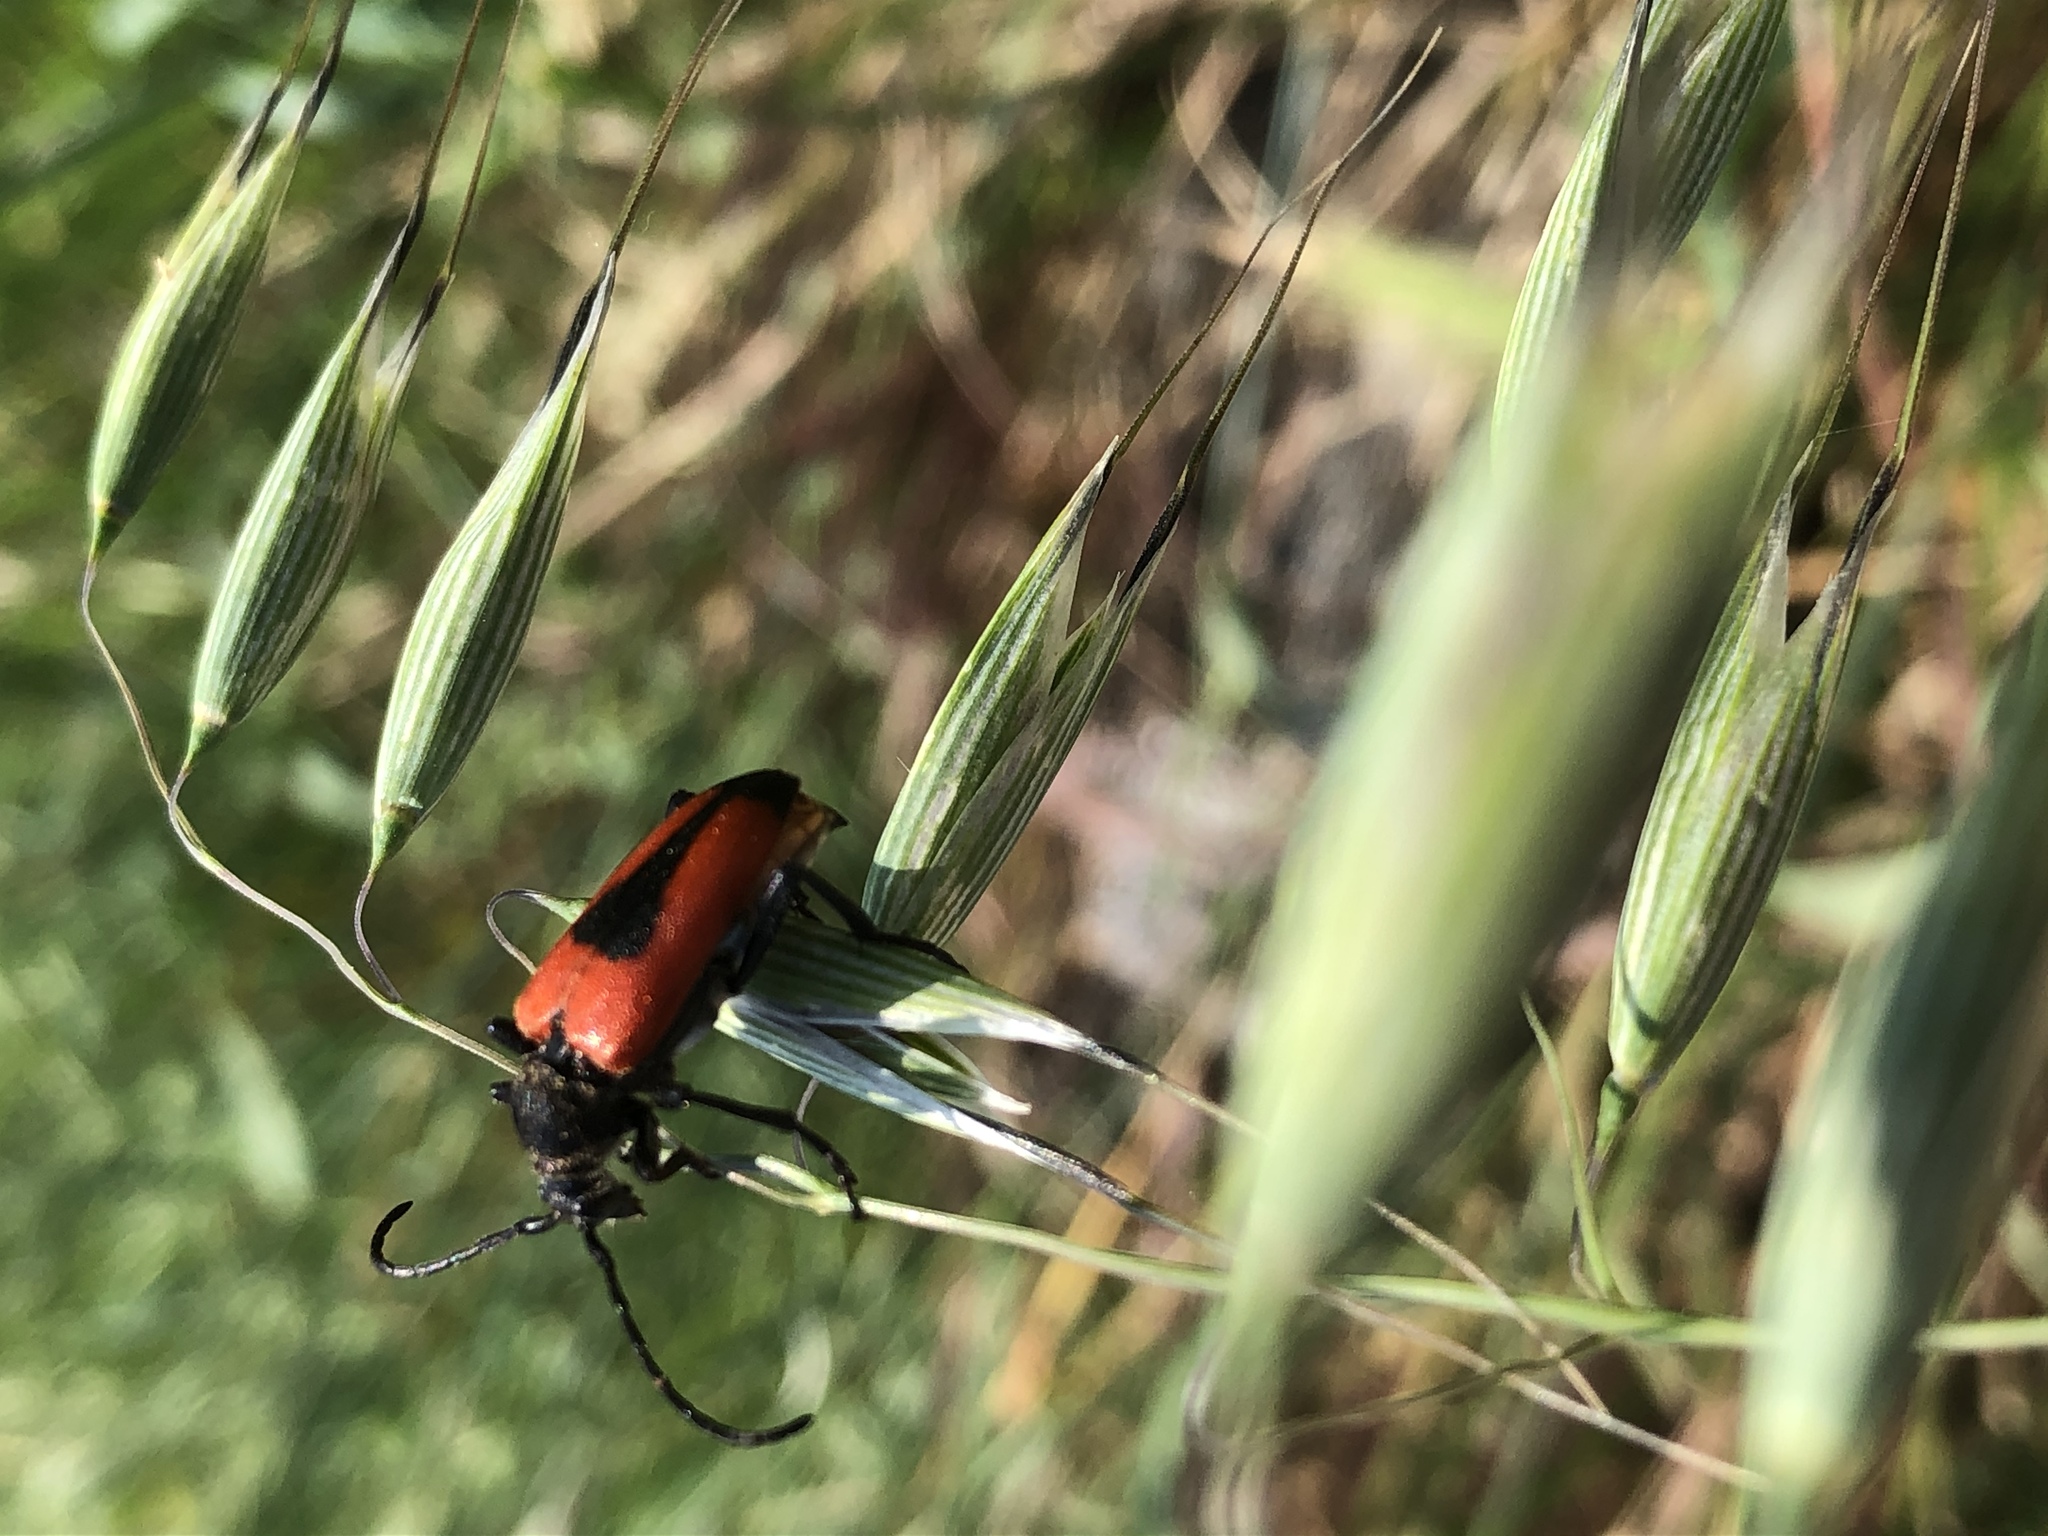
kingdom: Animalia
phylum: Arthropoda
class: Insecta
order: Coleoptera
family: Cerambycidae
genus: Stictoleptura
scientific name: Stictoleptura cordigera
